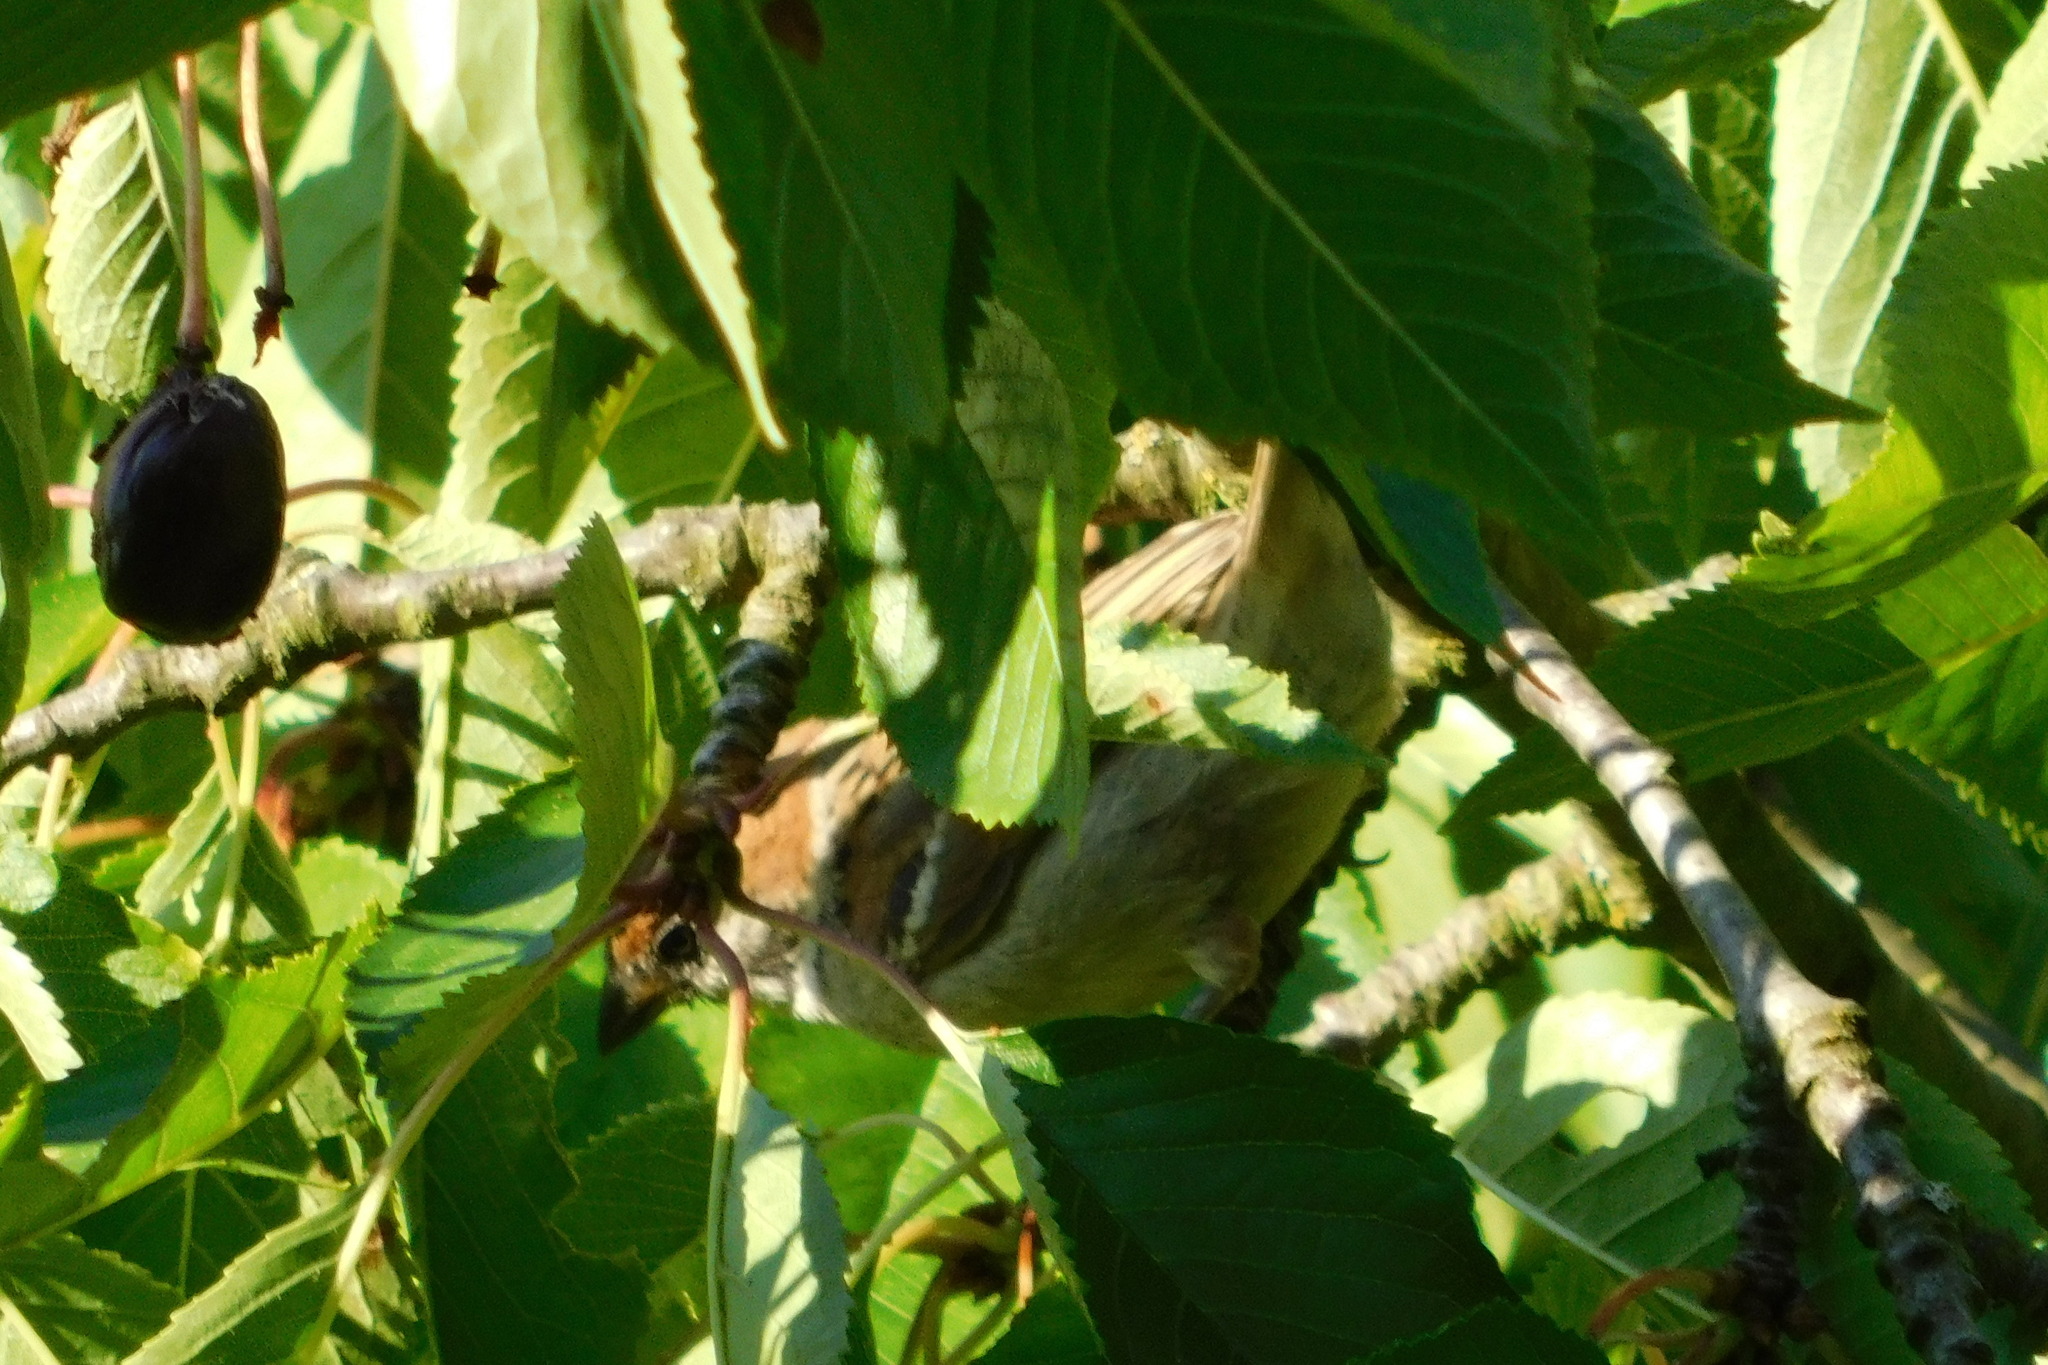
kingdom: Animalia
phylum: Chordata
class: Aves
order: Passeriformes
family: Passeridae
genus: Passer
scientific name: Passer montanus
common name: Eurasian tree sparrow
